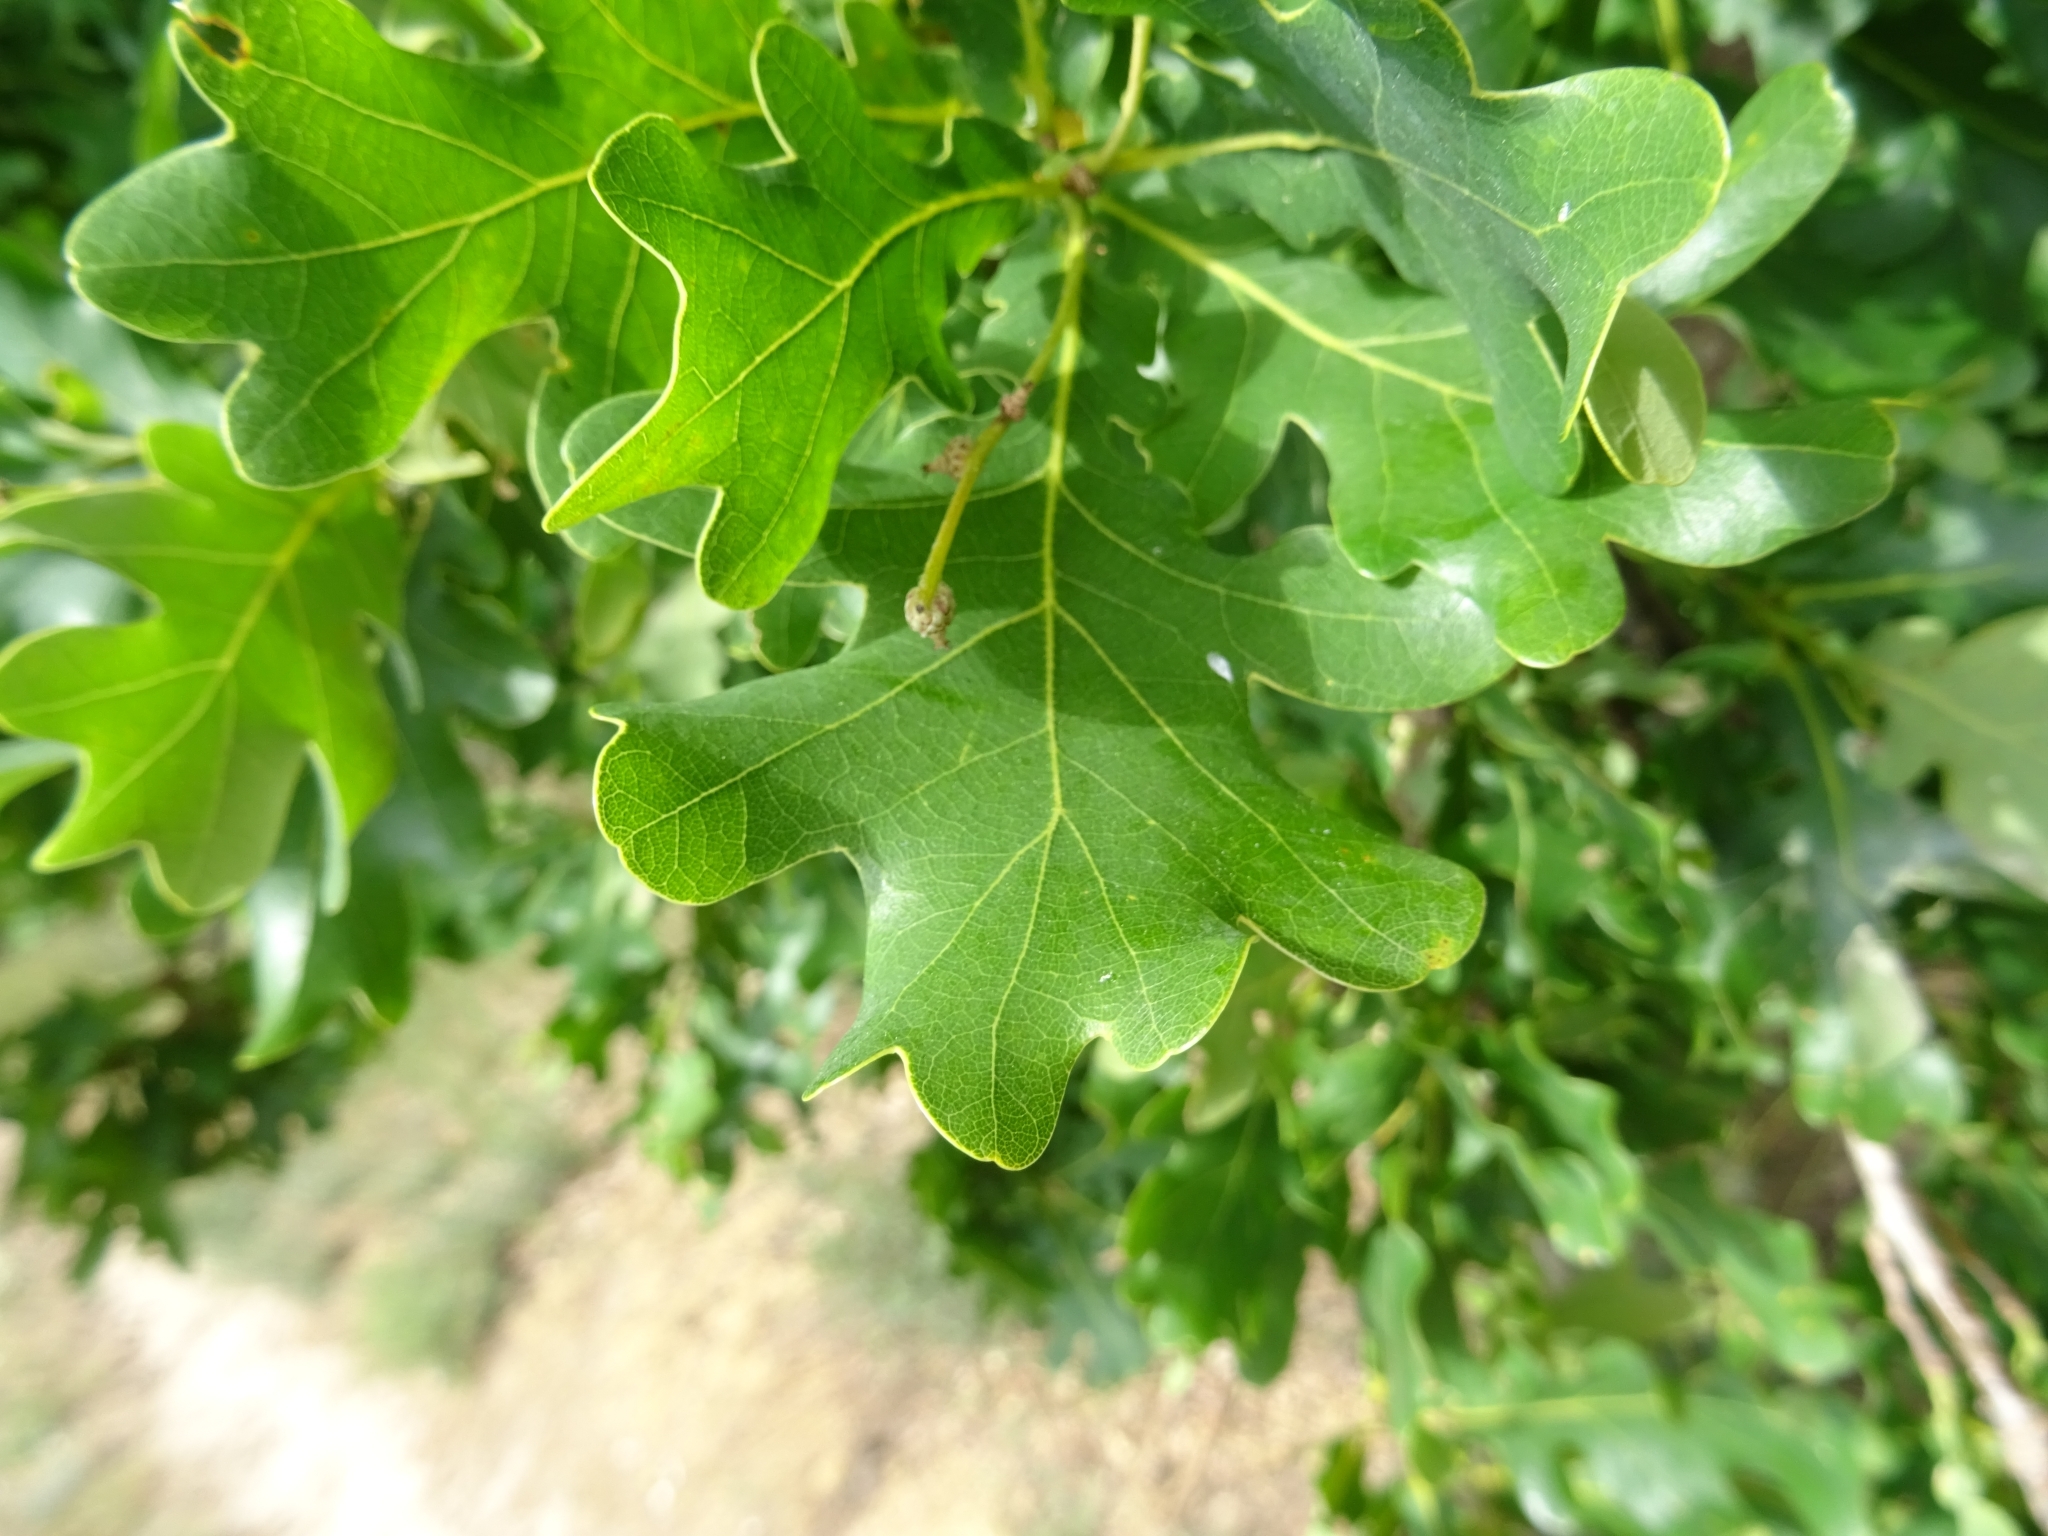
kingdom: Plantae
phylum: Tracheophyta
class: Magnoliopsida
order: Fagales
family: Fagaceae
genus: Quercus
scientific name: Quercus robur
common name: Pedunculate oak
